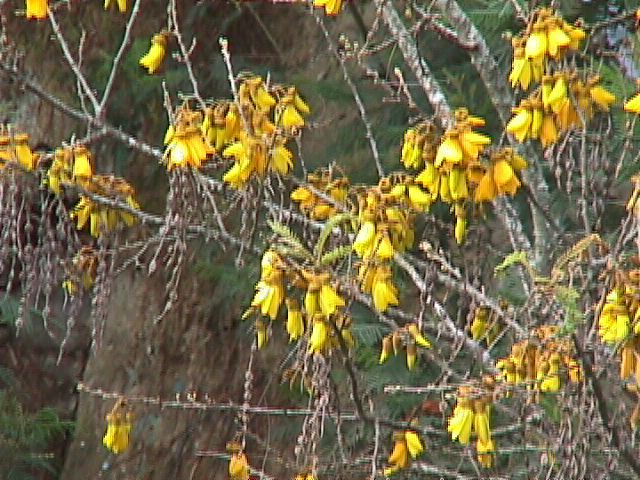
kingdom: Plantae
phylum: Tracheophyta
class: Magnoliopsida
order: Fabales
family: Fabaceae
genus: Sophora
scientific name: Sophora chathamica
